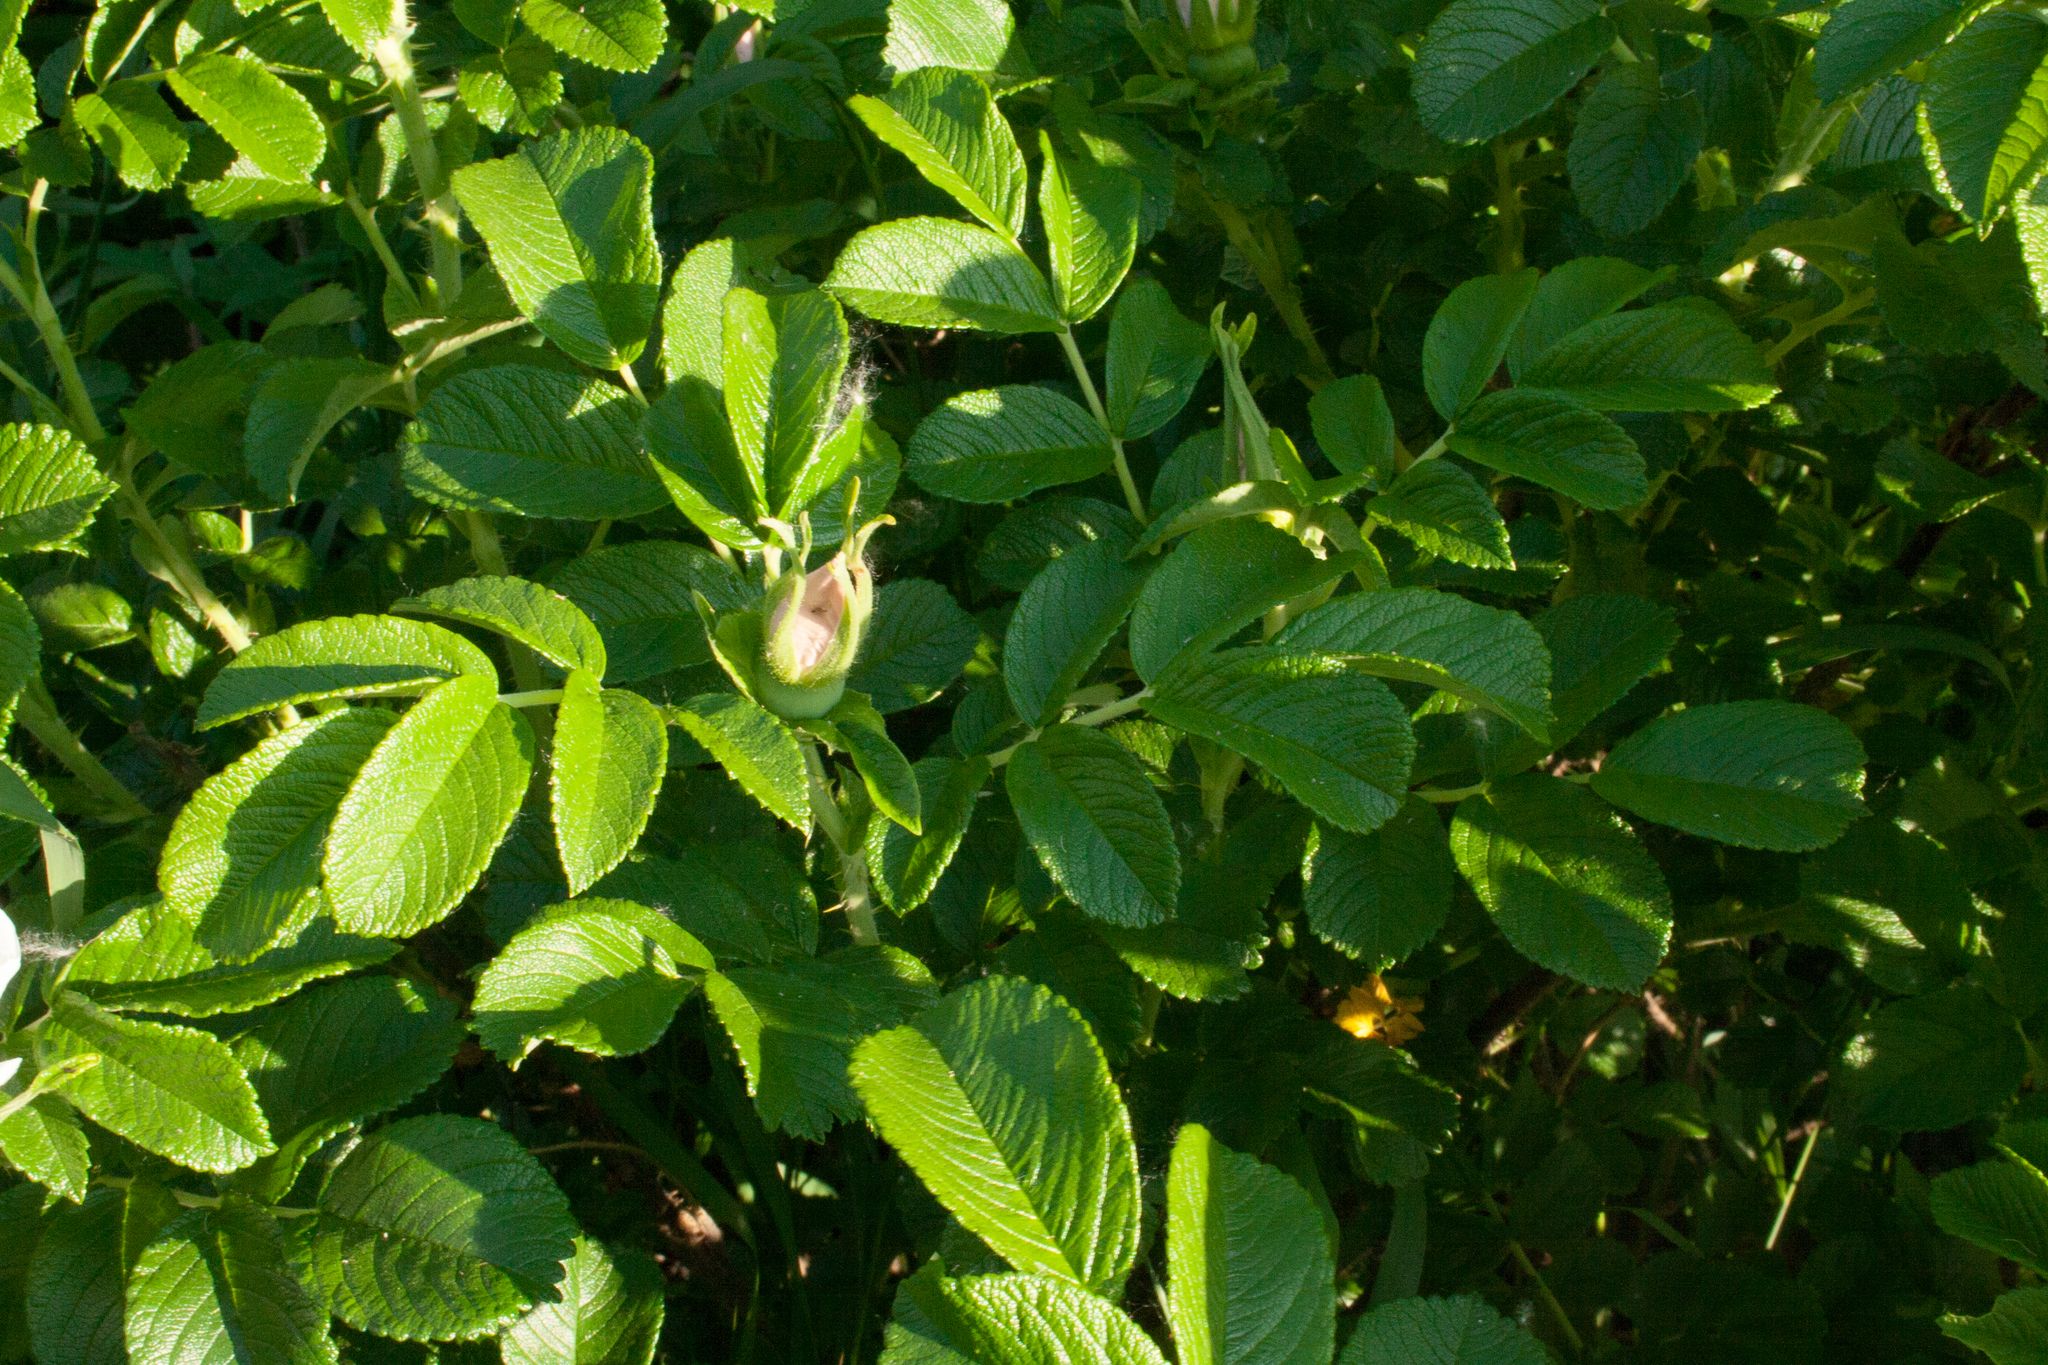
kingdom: Plantae
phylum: Tracheophyta
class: Magnoliopsida
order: Rosales
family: Rosaceae
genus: Rosa
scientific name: Rosa rugosa
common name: Japanese rose
